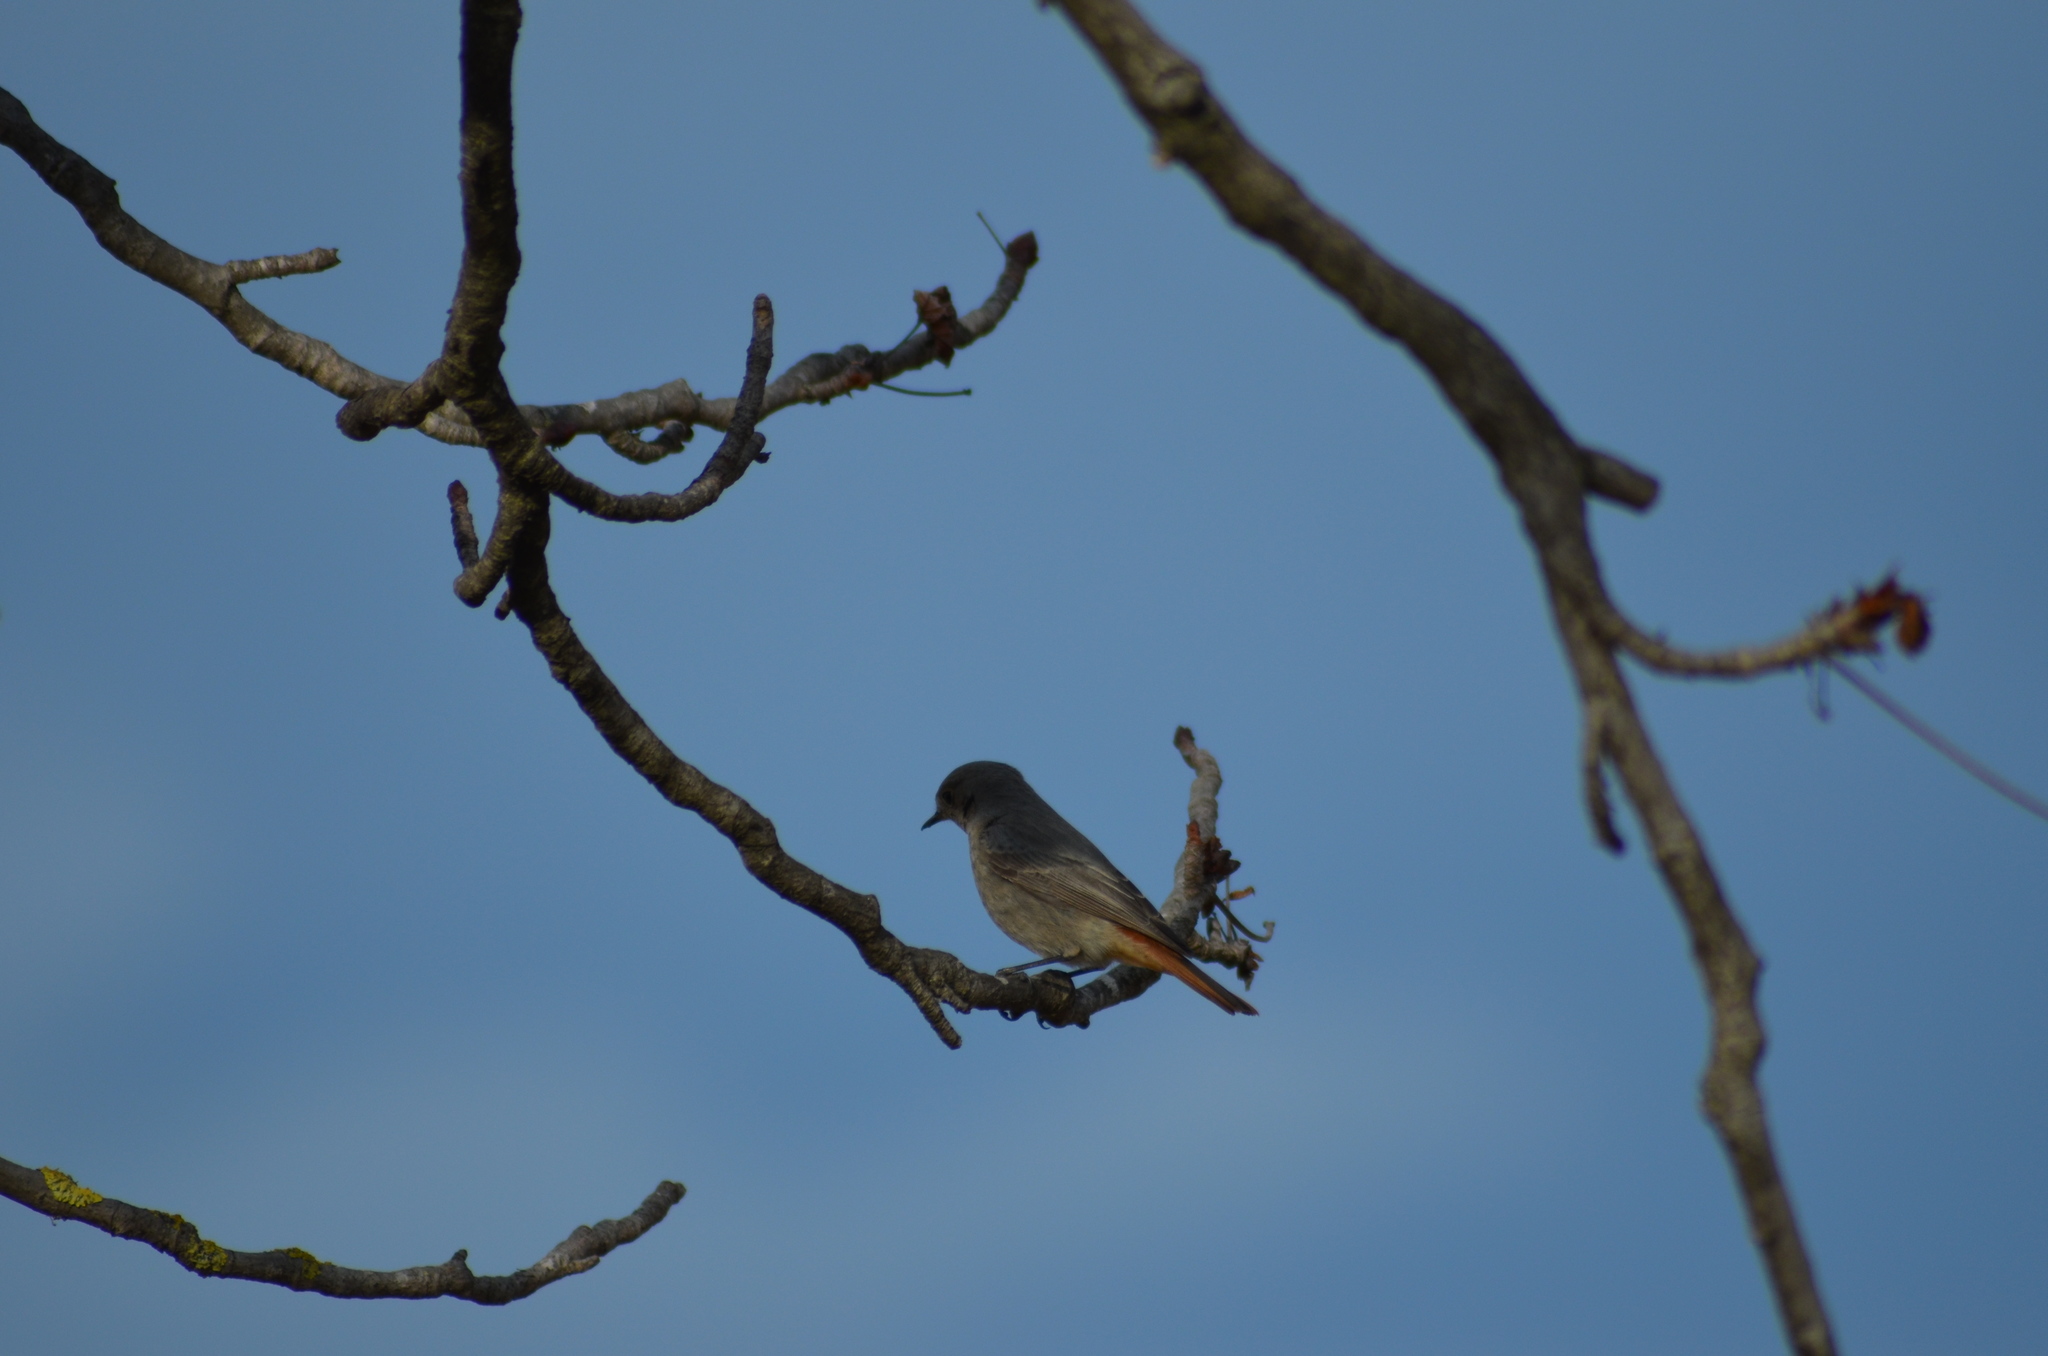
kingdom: Animalia
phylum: Chordata
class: Aves
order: Passeriformes
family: Muscicapidae
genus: Phoenicurus
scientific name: Phoenicurus ochruros
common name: Black redstart
